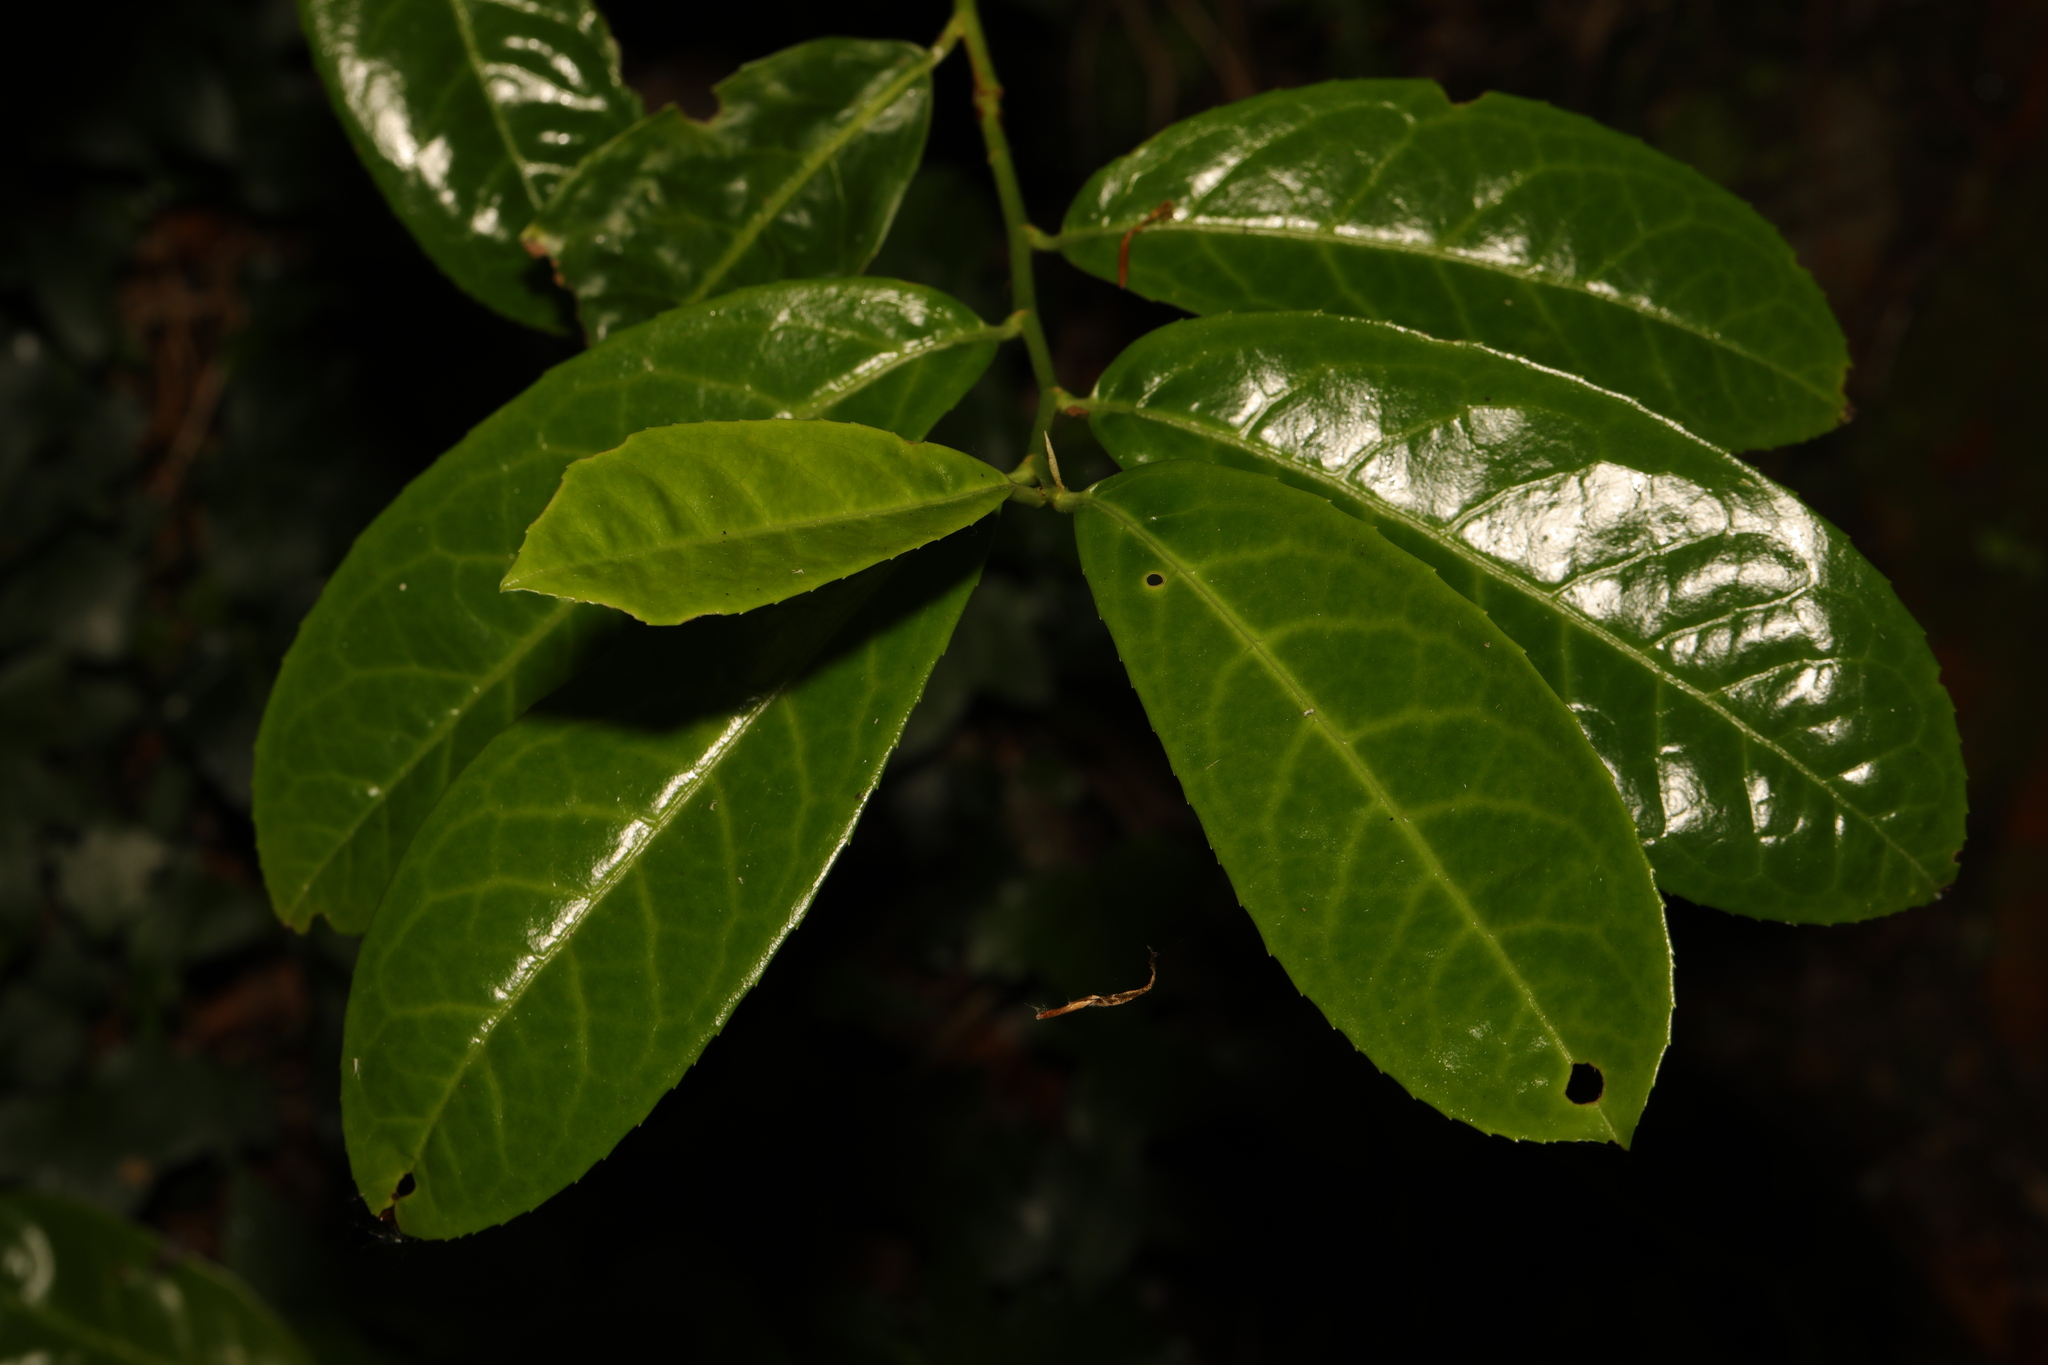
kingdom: Plantae
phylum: Tracheophyta
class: Magnoliopsida
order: Rosales
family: Rosaceae
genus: Prunus
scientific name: Prunus laurocerasus
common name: Cherry laurel
